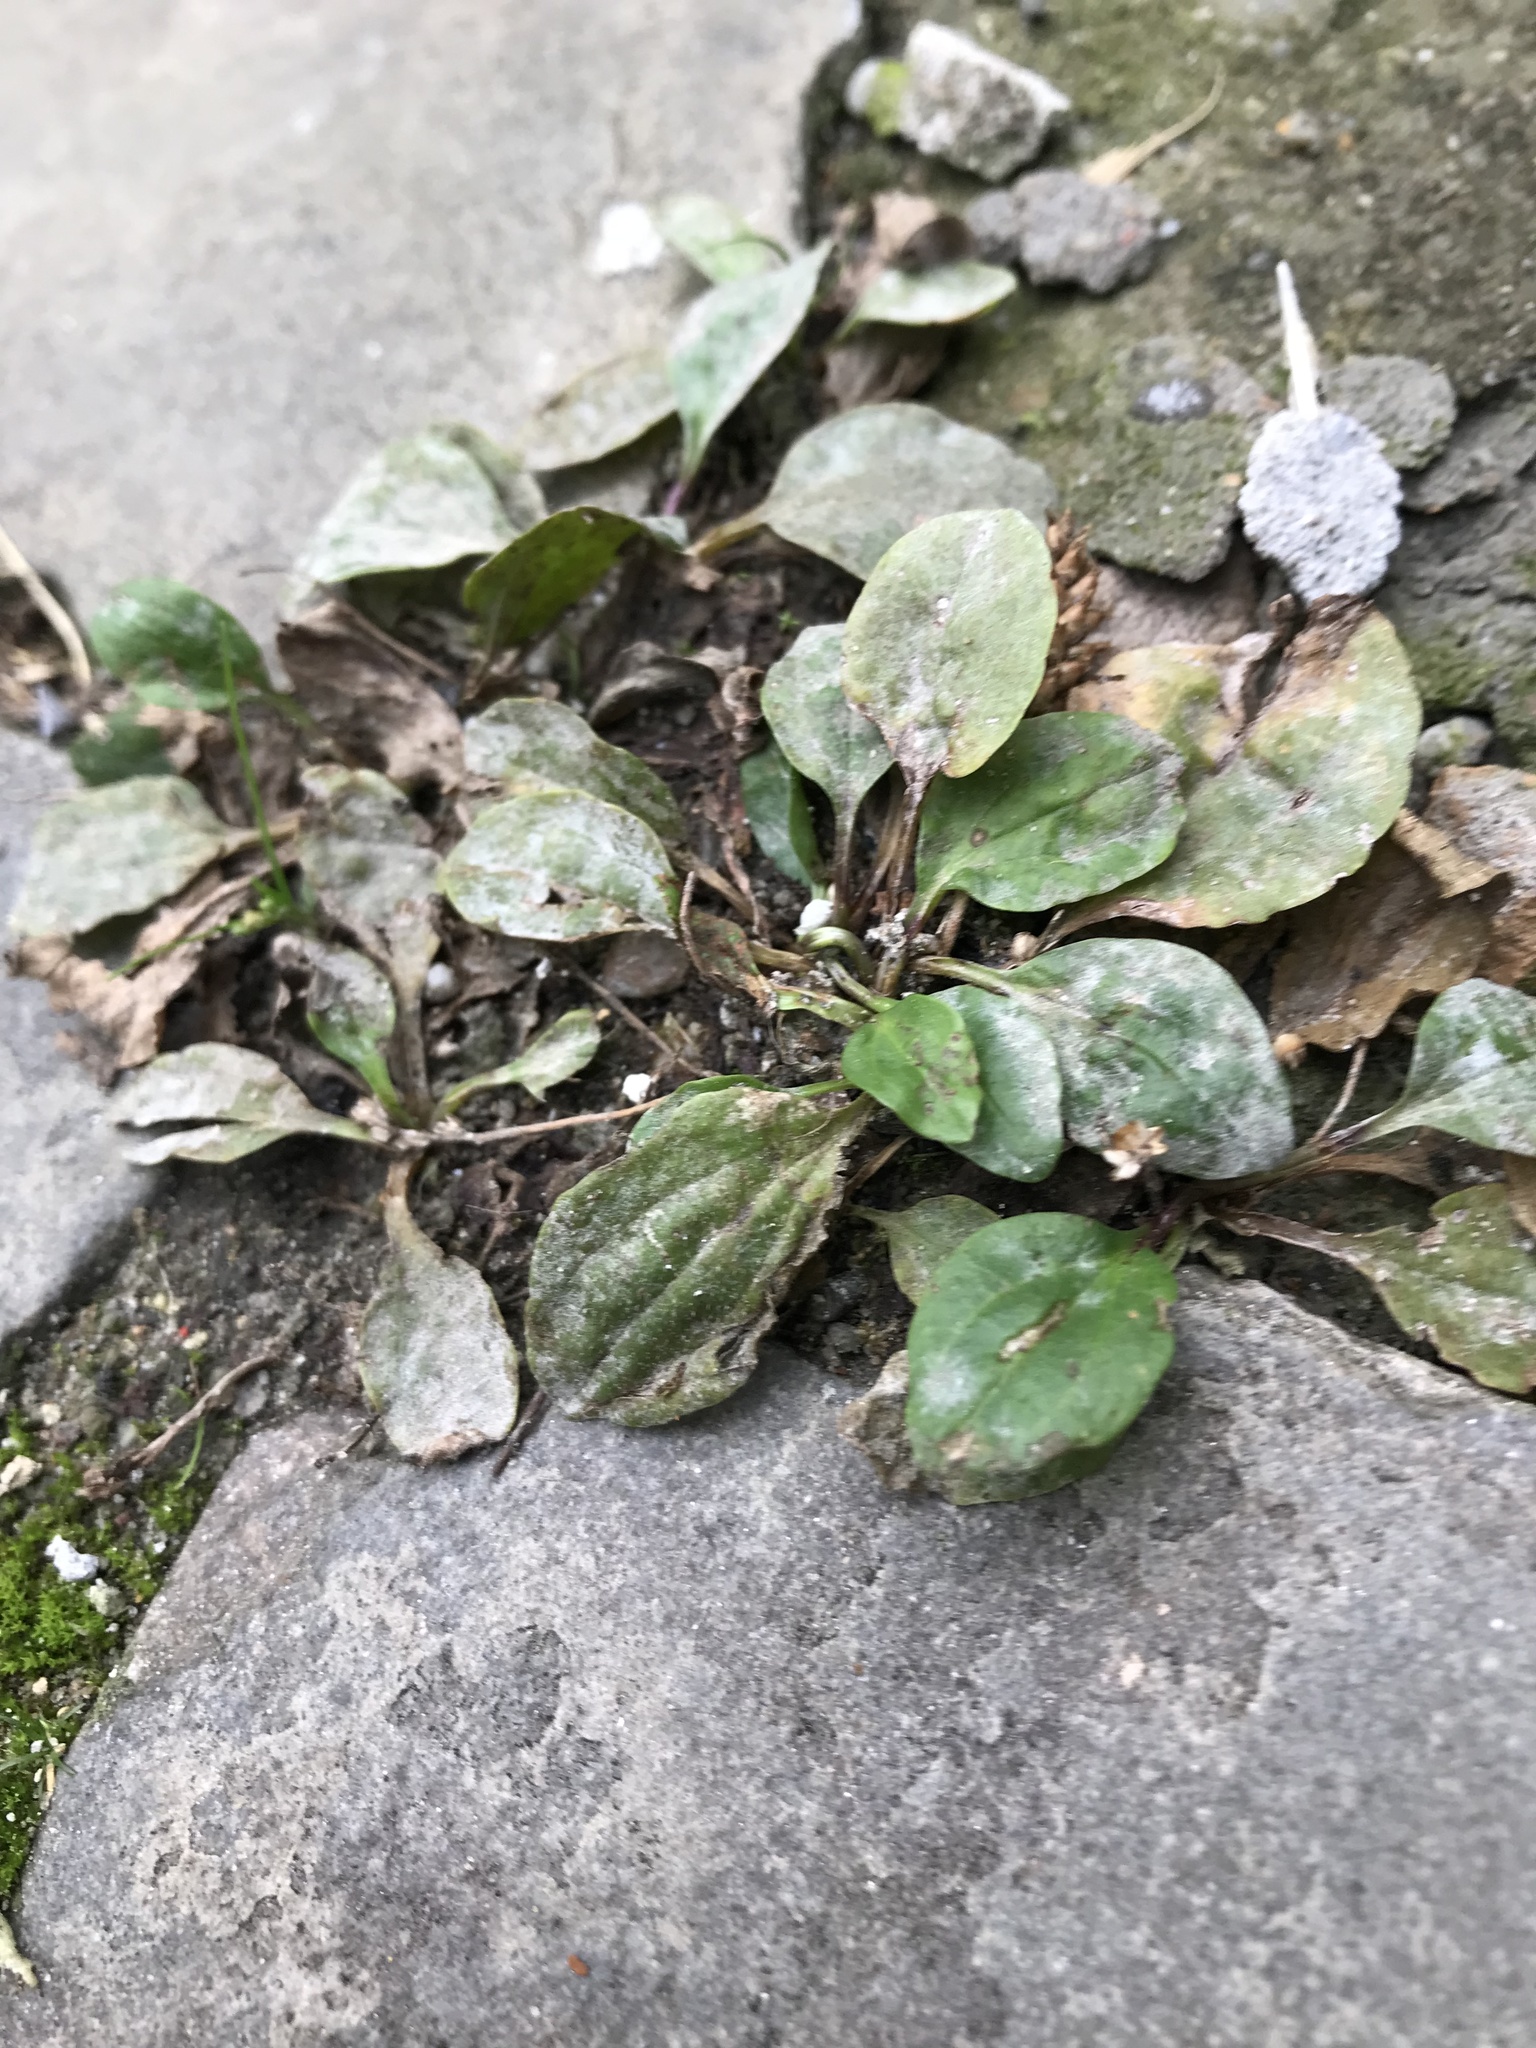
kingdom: Plantae
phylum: Tracheophyta
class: Magnoliopsida
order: Lamiales
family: Plantaginaceae
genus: Plantago
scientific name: Plantago major
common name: Common plantain
